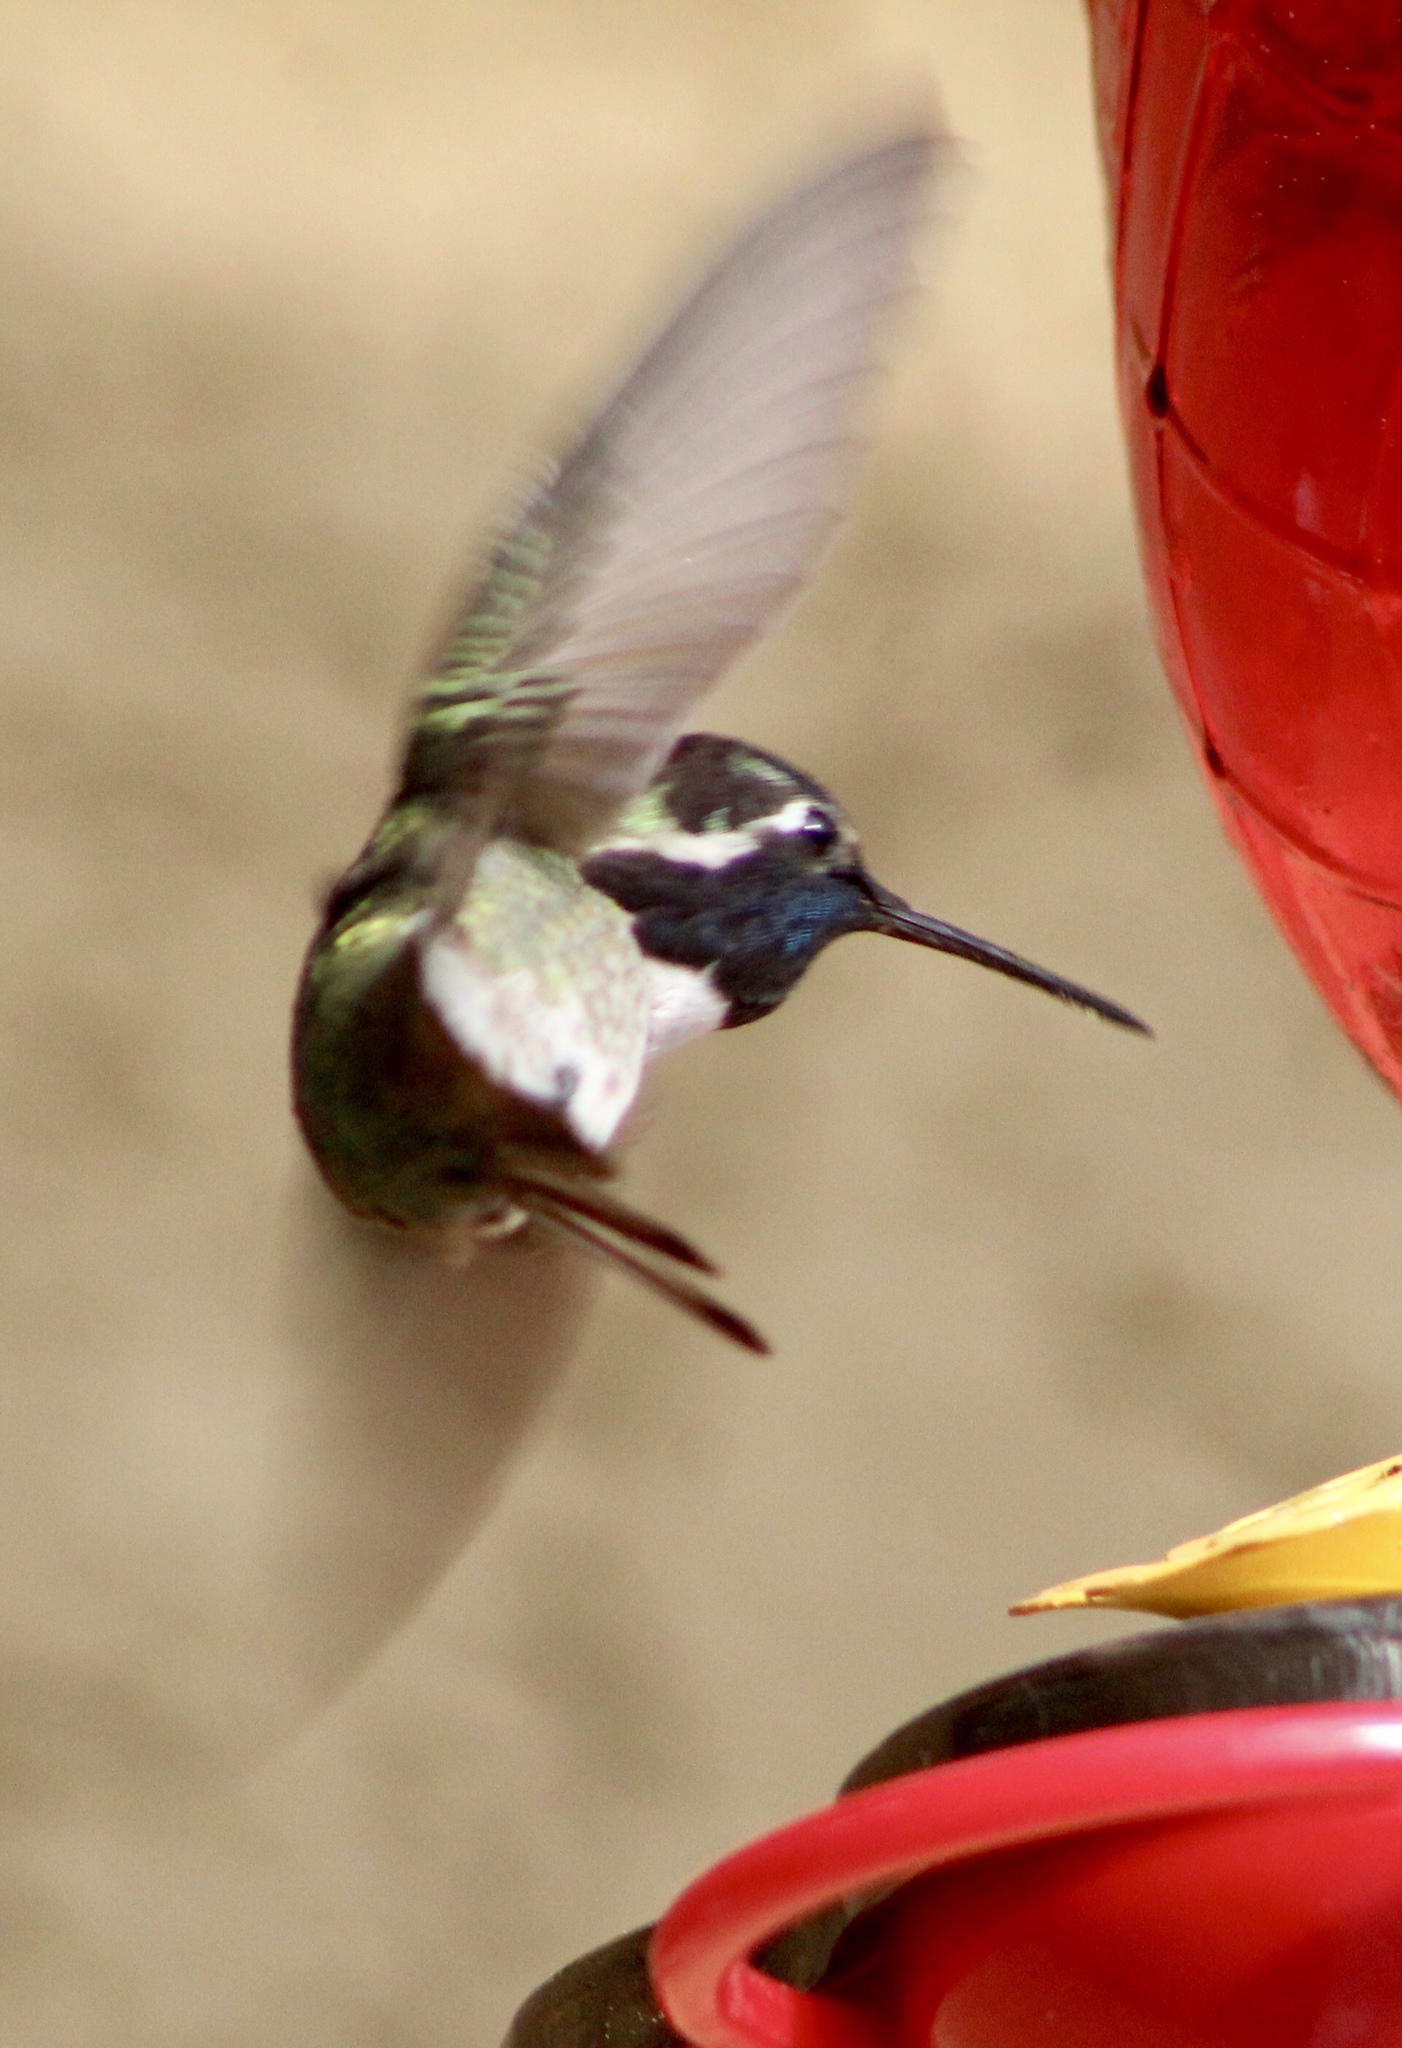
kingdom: Animalia
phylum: Chordata
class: Aves
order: Apodiformes
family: Trochilidae
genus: Calypte
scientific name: Calypte costae
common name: Costa's hummingbird
